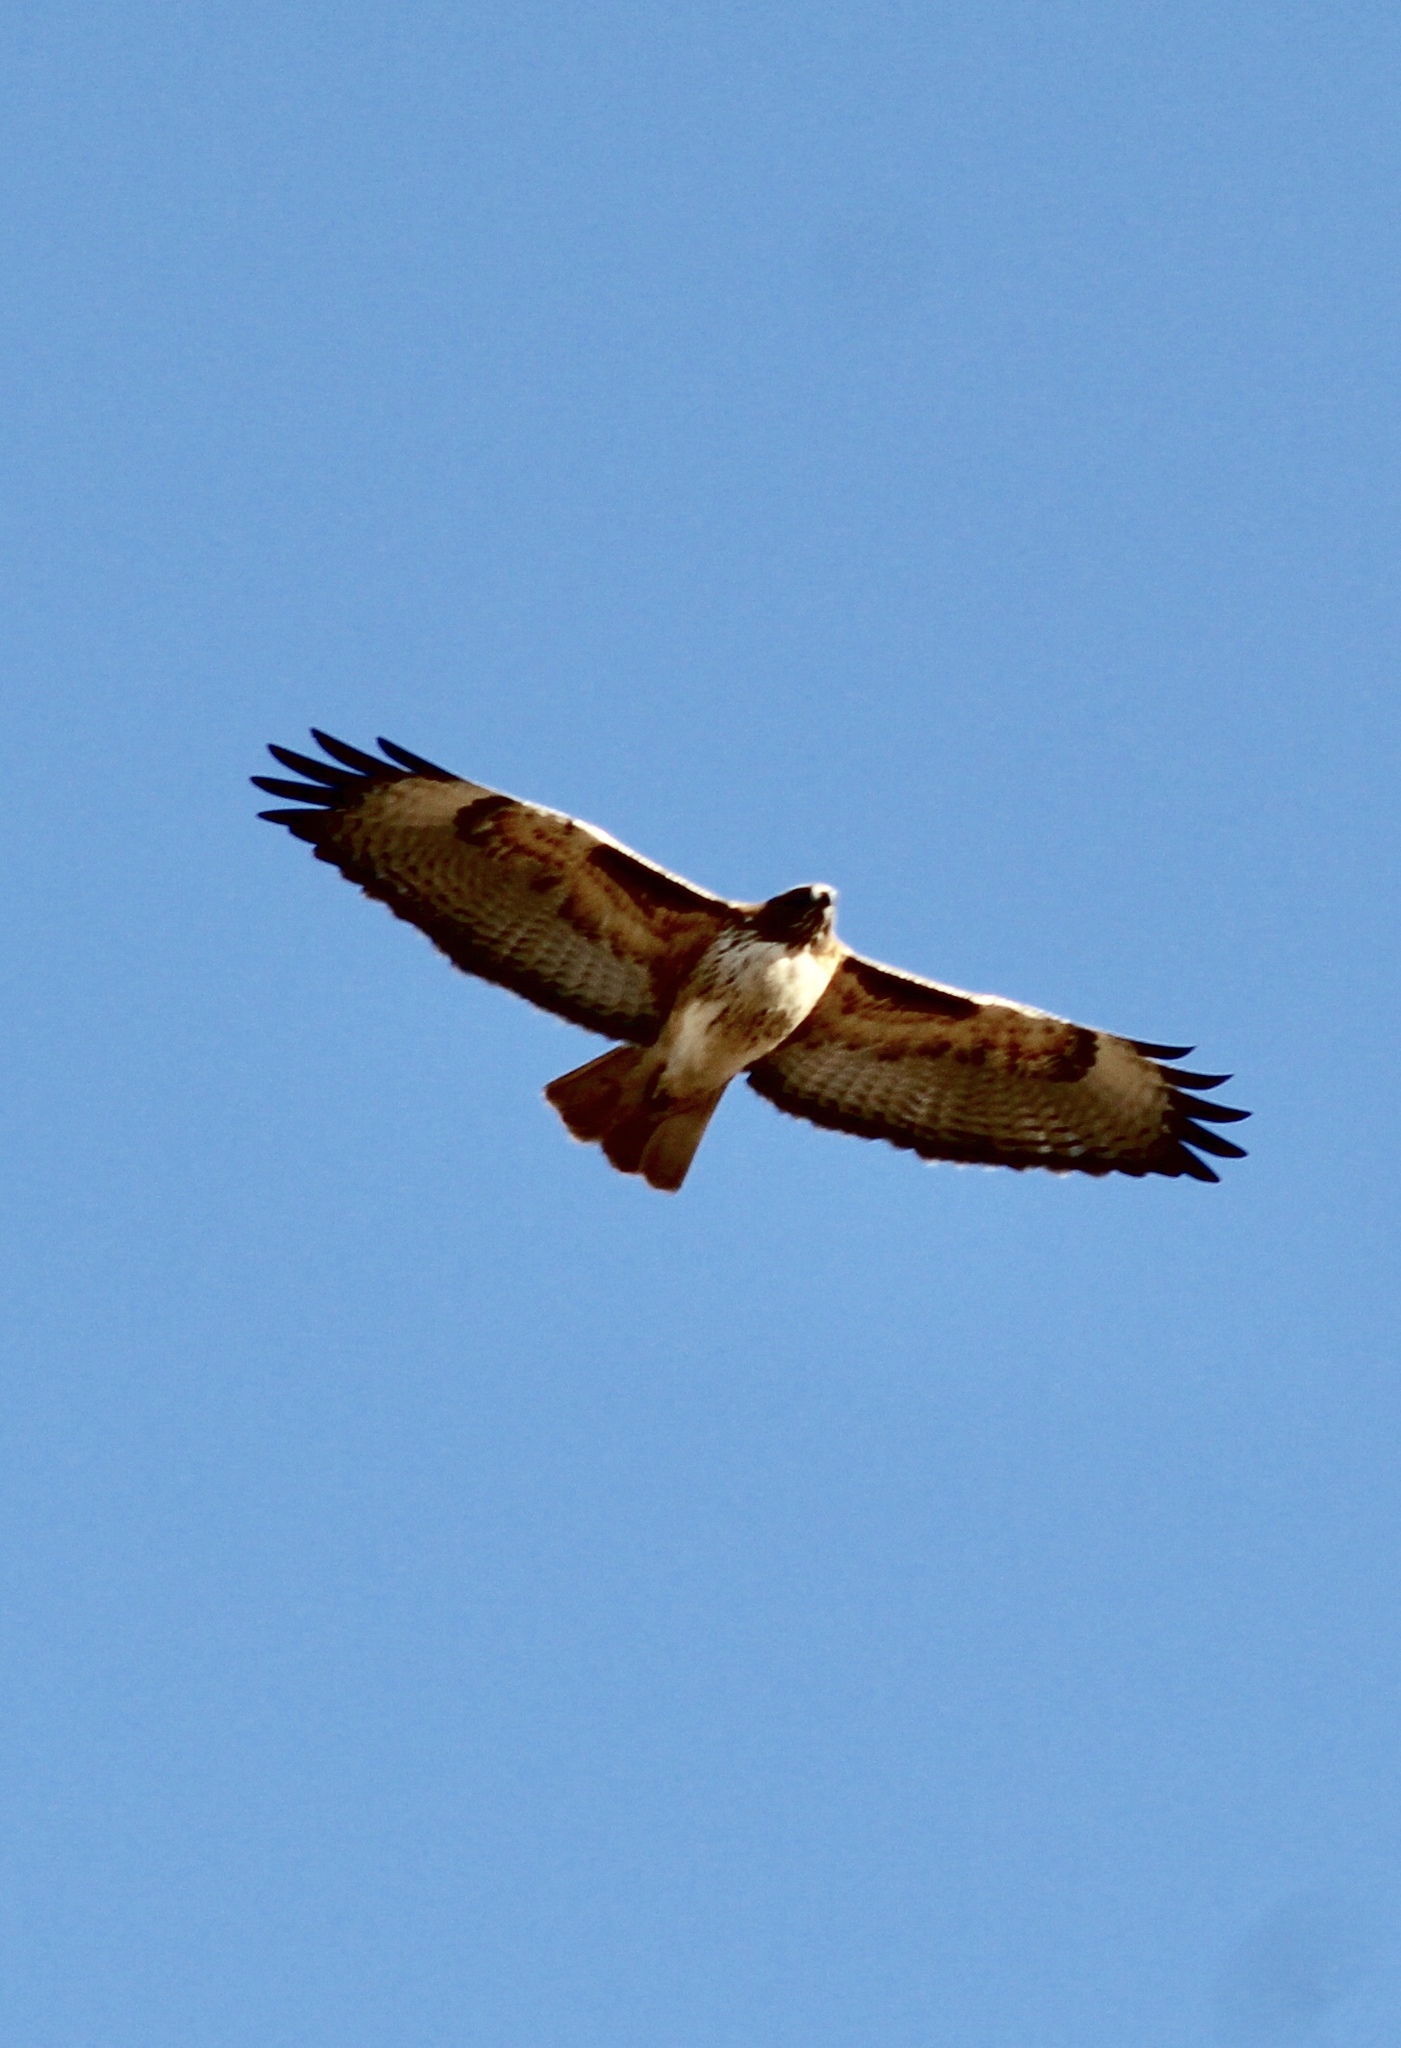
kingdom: Animalia
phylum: Chordata
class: Aves
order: Accipitriformes
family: Accipitridae
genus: Buteo
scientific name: Buteo jamaicensis
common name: Red-tailed hawk
